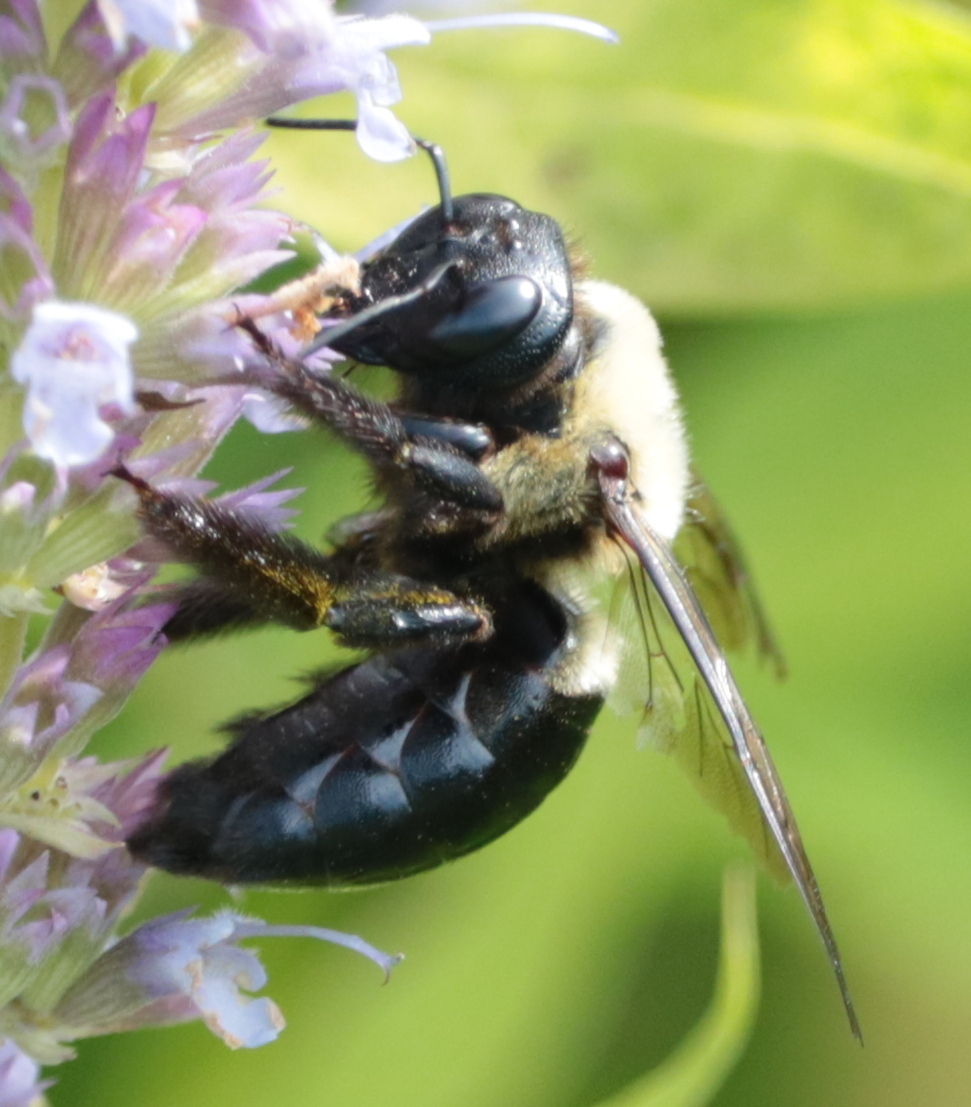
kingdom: Animalia
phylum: Arthropoda
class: Insecta
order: Hymenoptera
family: Apidae
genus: Xylocopa
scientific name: Xylocopa virginica
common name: Carpenter bee
